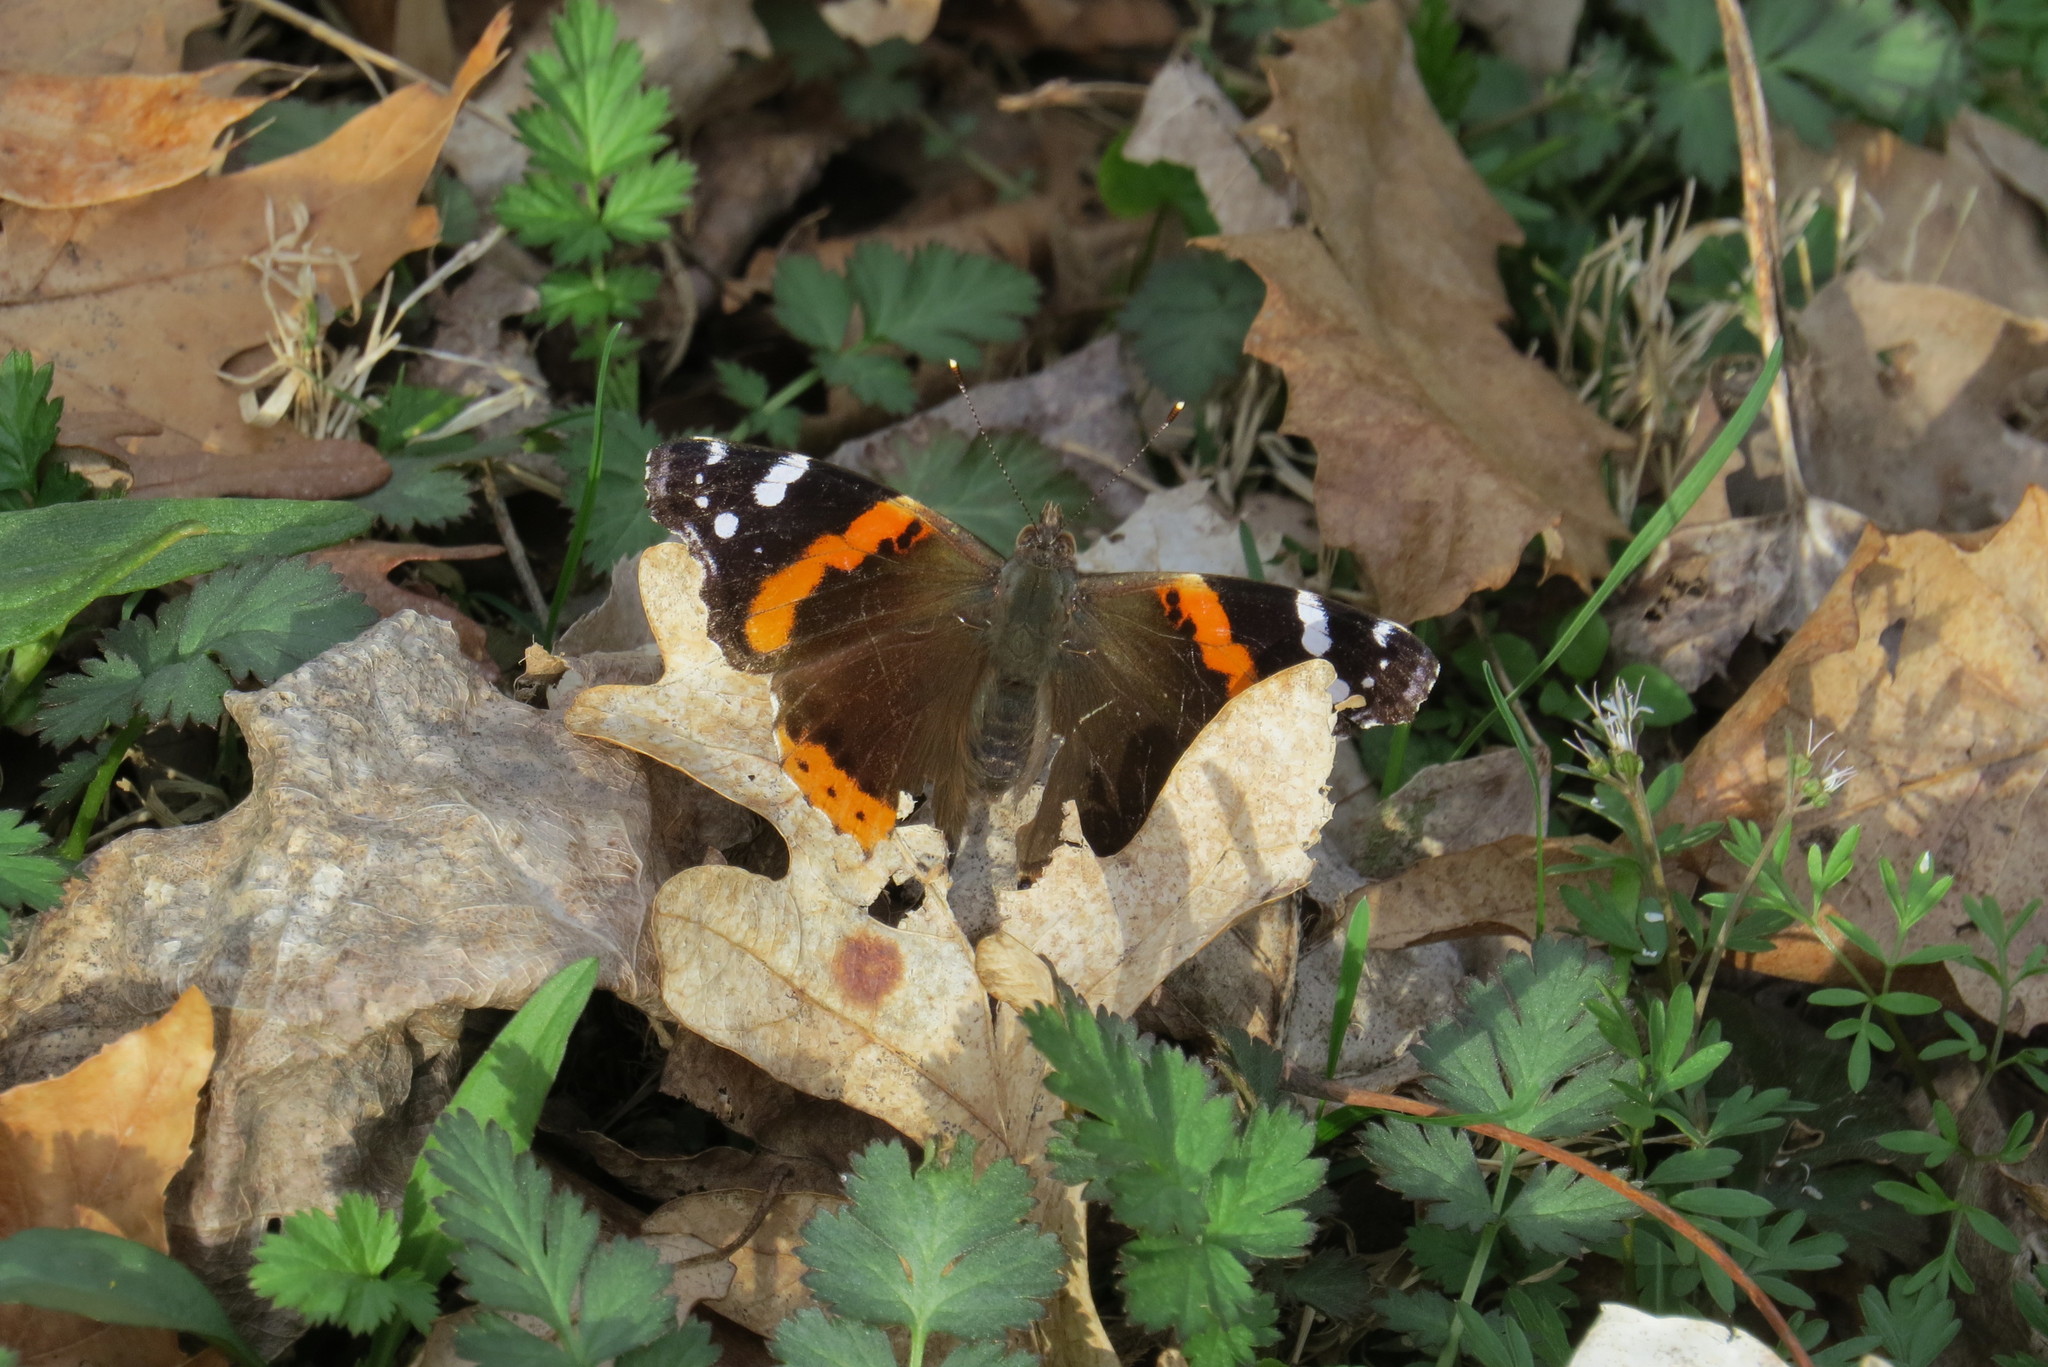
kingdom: Animalia
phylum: Arthropoda
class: Insecta
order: Lepidoptera
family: Nymphalidae
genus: Vanessa
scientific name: Vanessa atalanta
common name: Red admiral
